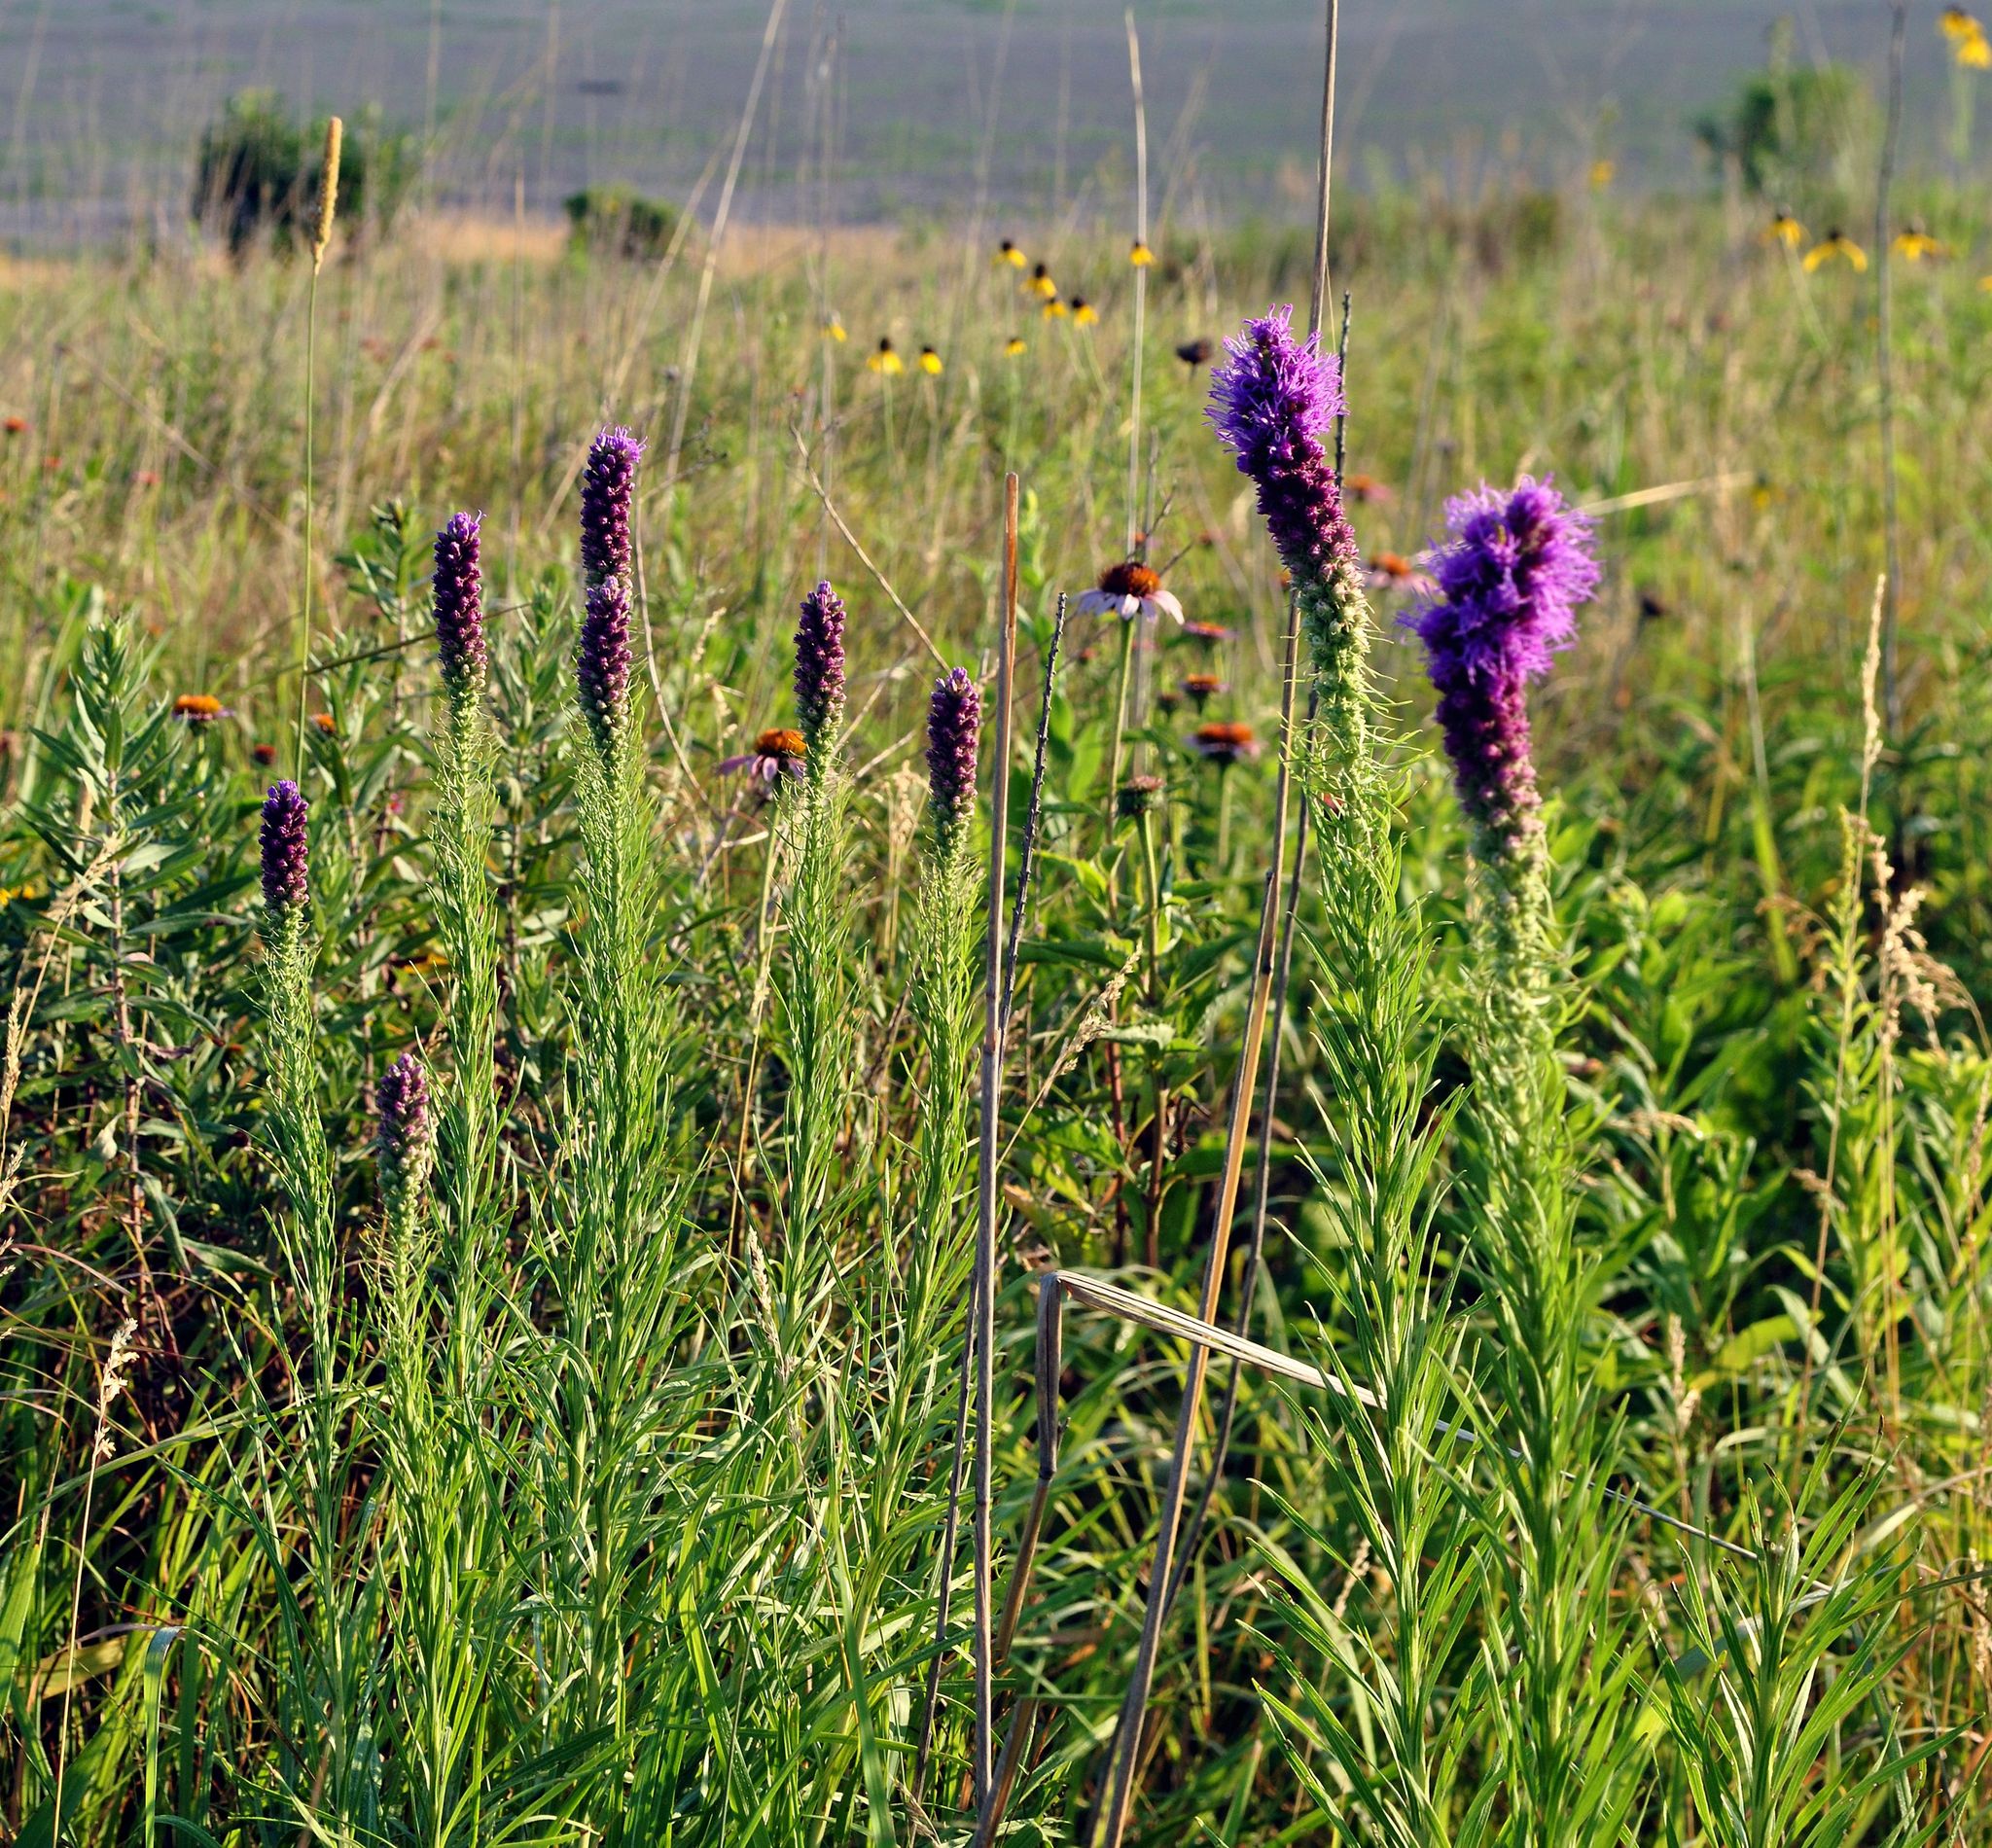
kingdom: Plantae
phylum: Tracheophyta
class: Magnoliopsida
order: Asterales
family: Asteraceae
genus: Liatris
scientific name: Liatris pycnostachya
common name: Cattail gayfeather
